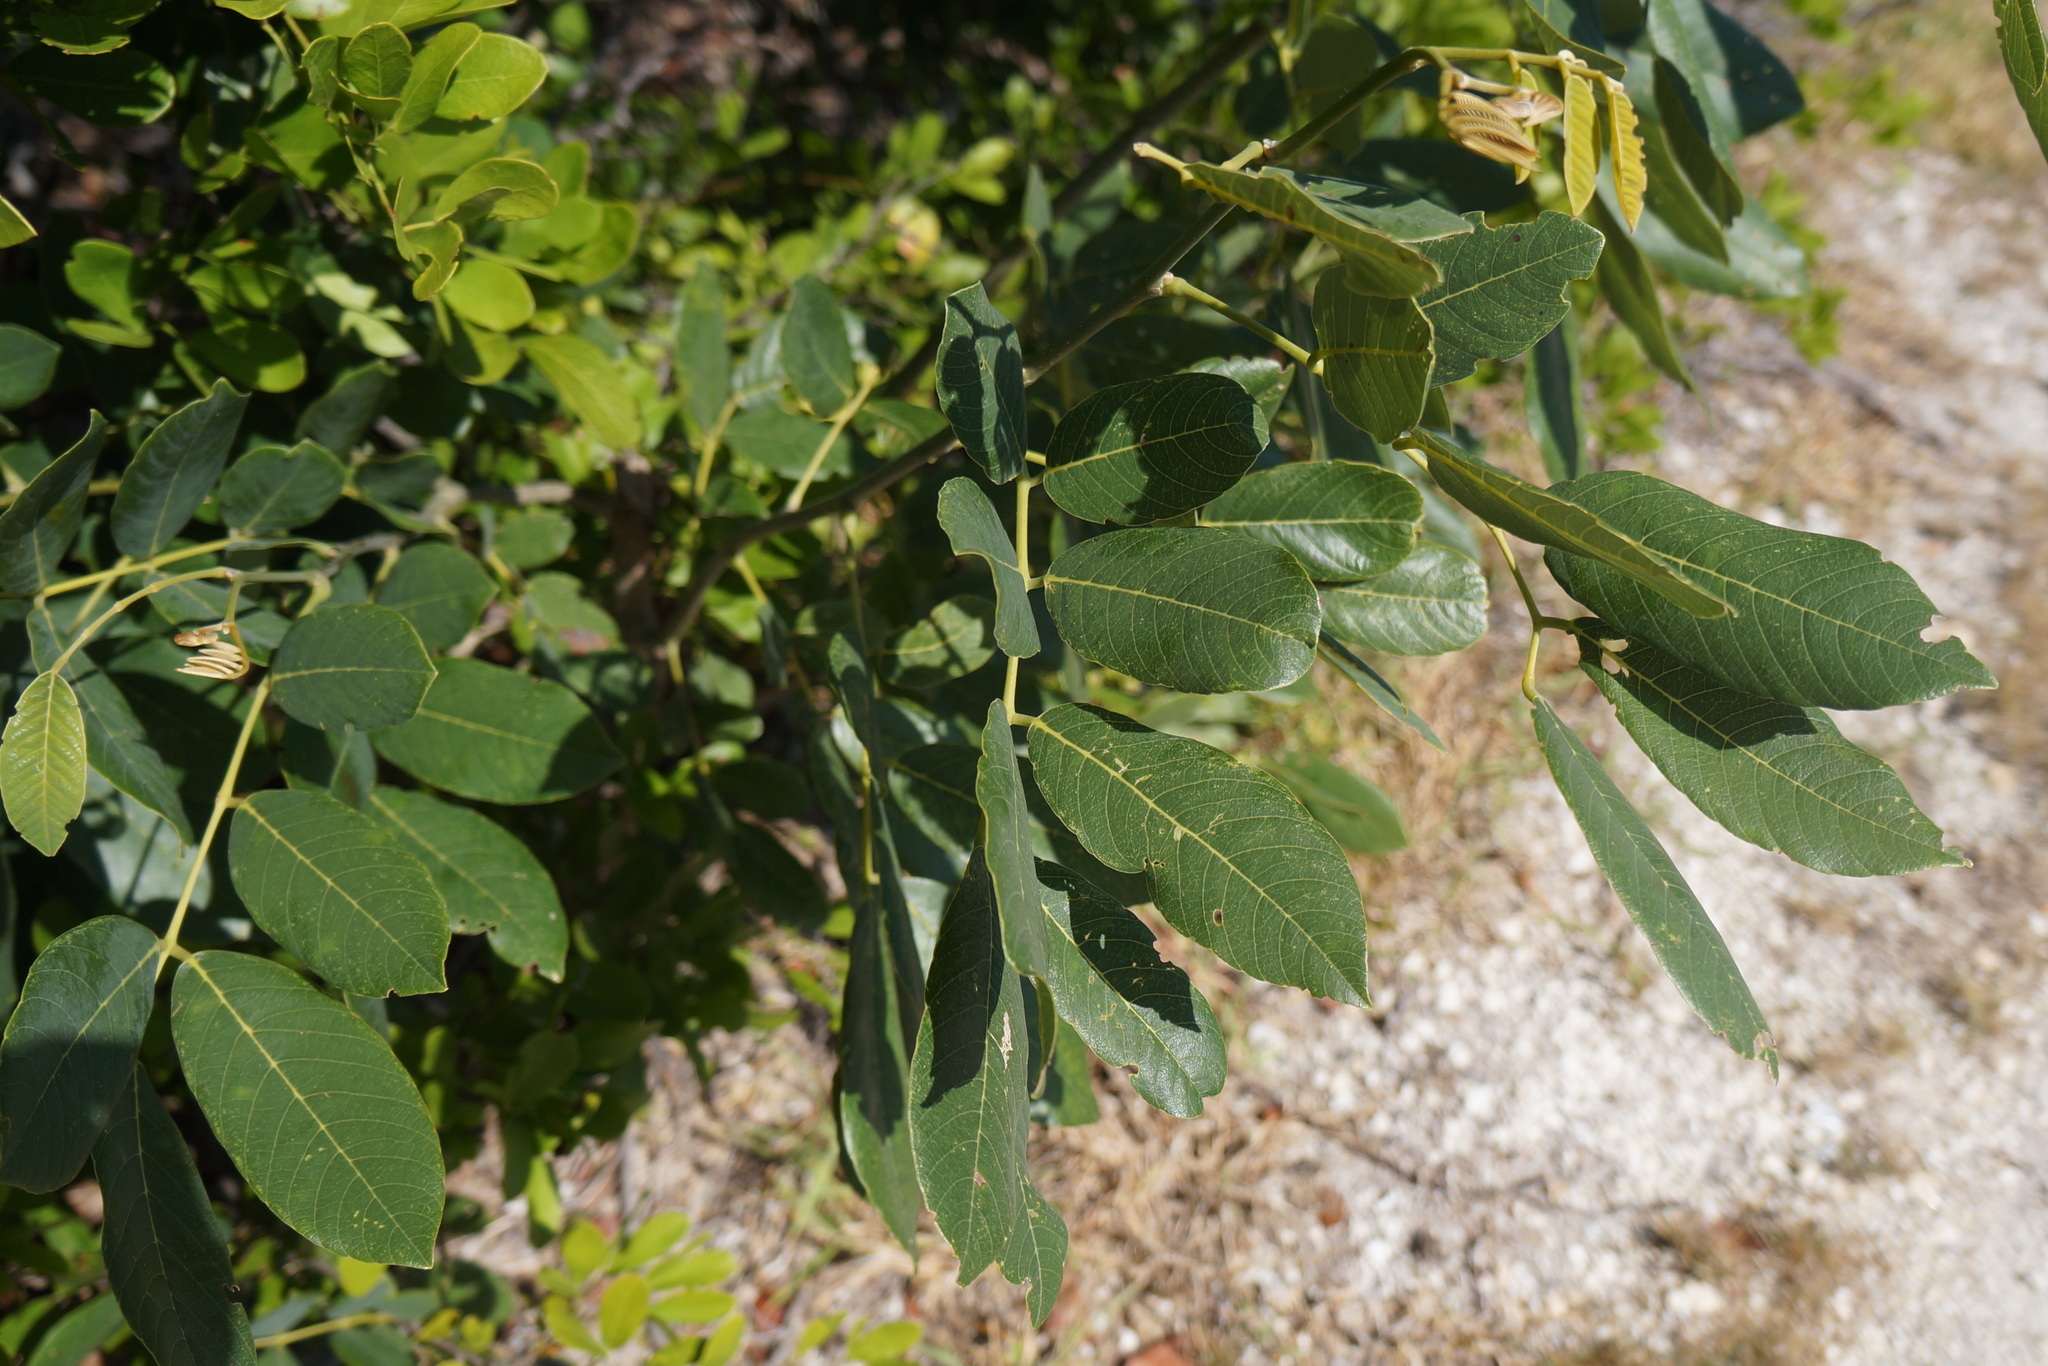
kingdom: Plantae
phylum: Tracheophyta
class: Magnoliopsida
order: Fabales
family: Fabaceae
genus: Piscidia
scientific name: Piscidia piscipula
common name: Florida fishpoison tree
